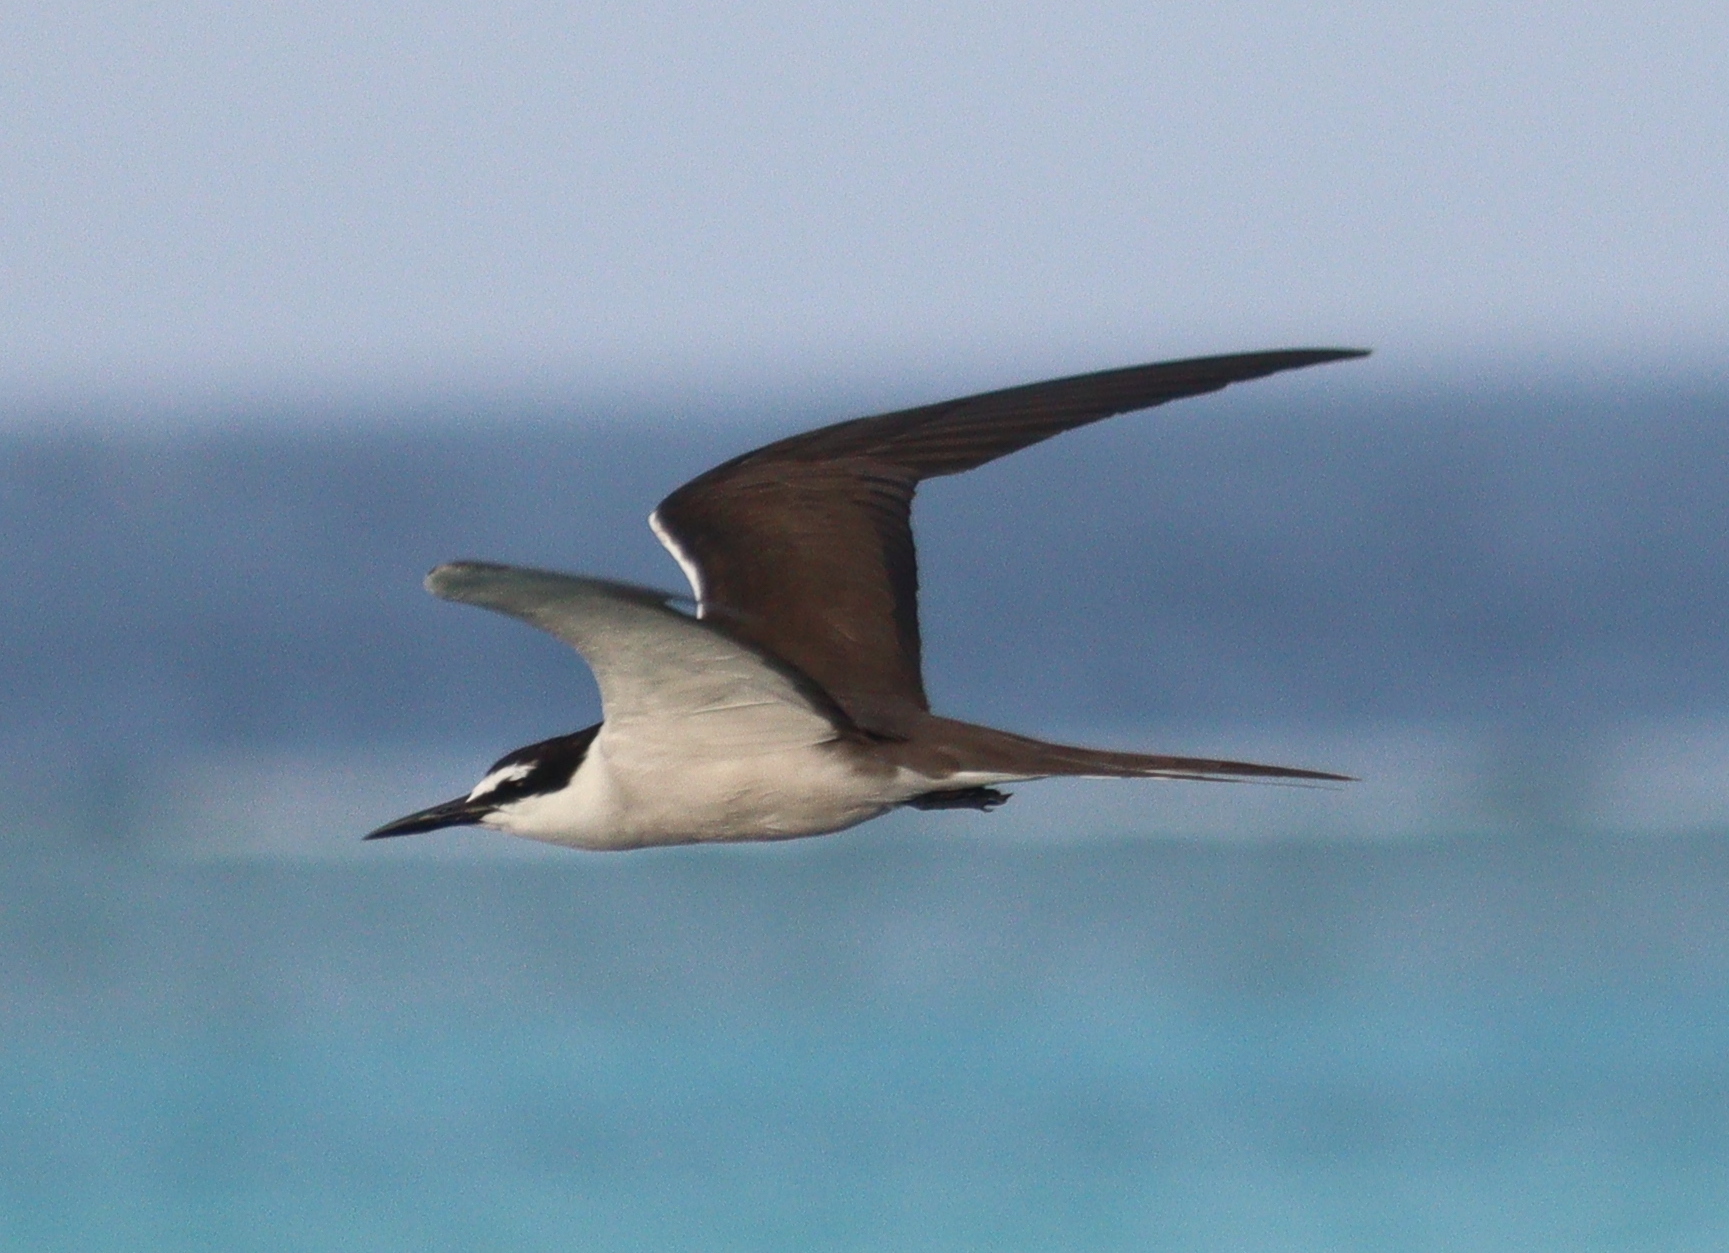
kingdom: Animalia
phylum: Chordata
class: Aves
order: Charadriiformes
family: Laridae
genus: Onychoprion
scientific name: Onychoprion anaethetus
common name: Bridled tern
